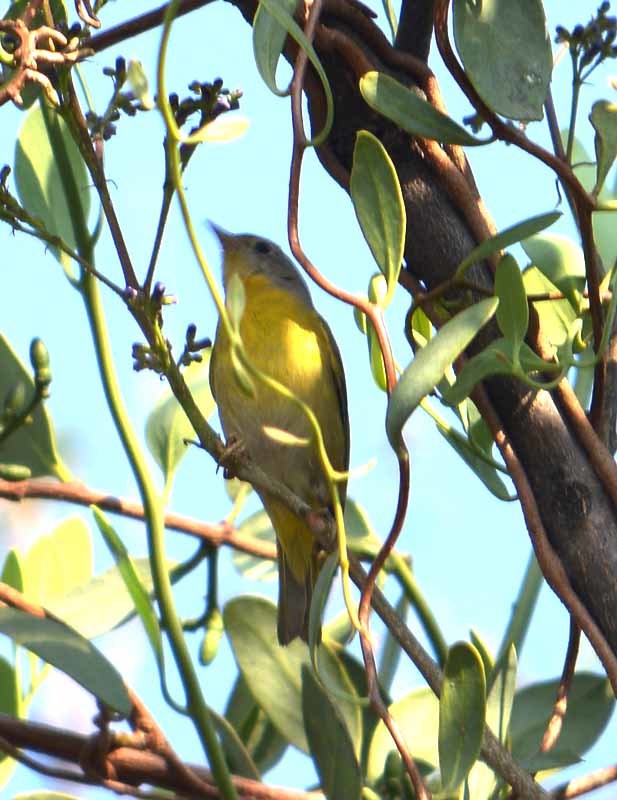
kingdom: Animalia
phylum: Chordata
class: Aves
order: Passeriformes
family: Parulidae
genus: Leiothlypis
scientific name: Leiothlypis ruficapilla
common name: Nashville warbler
